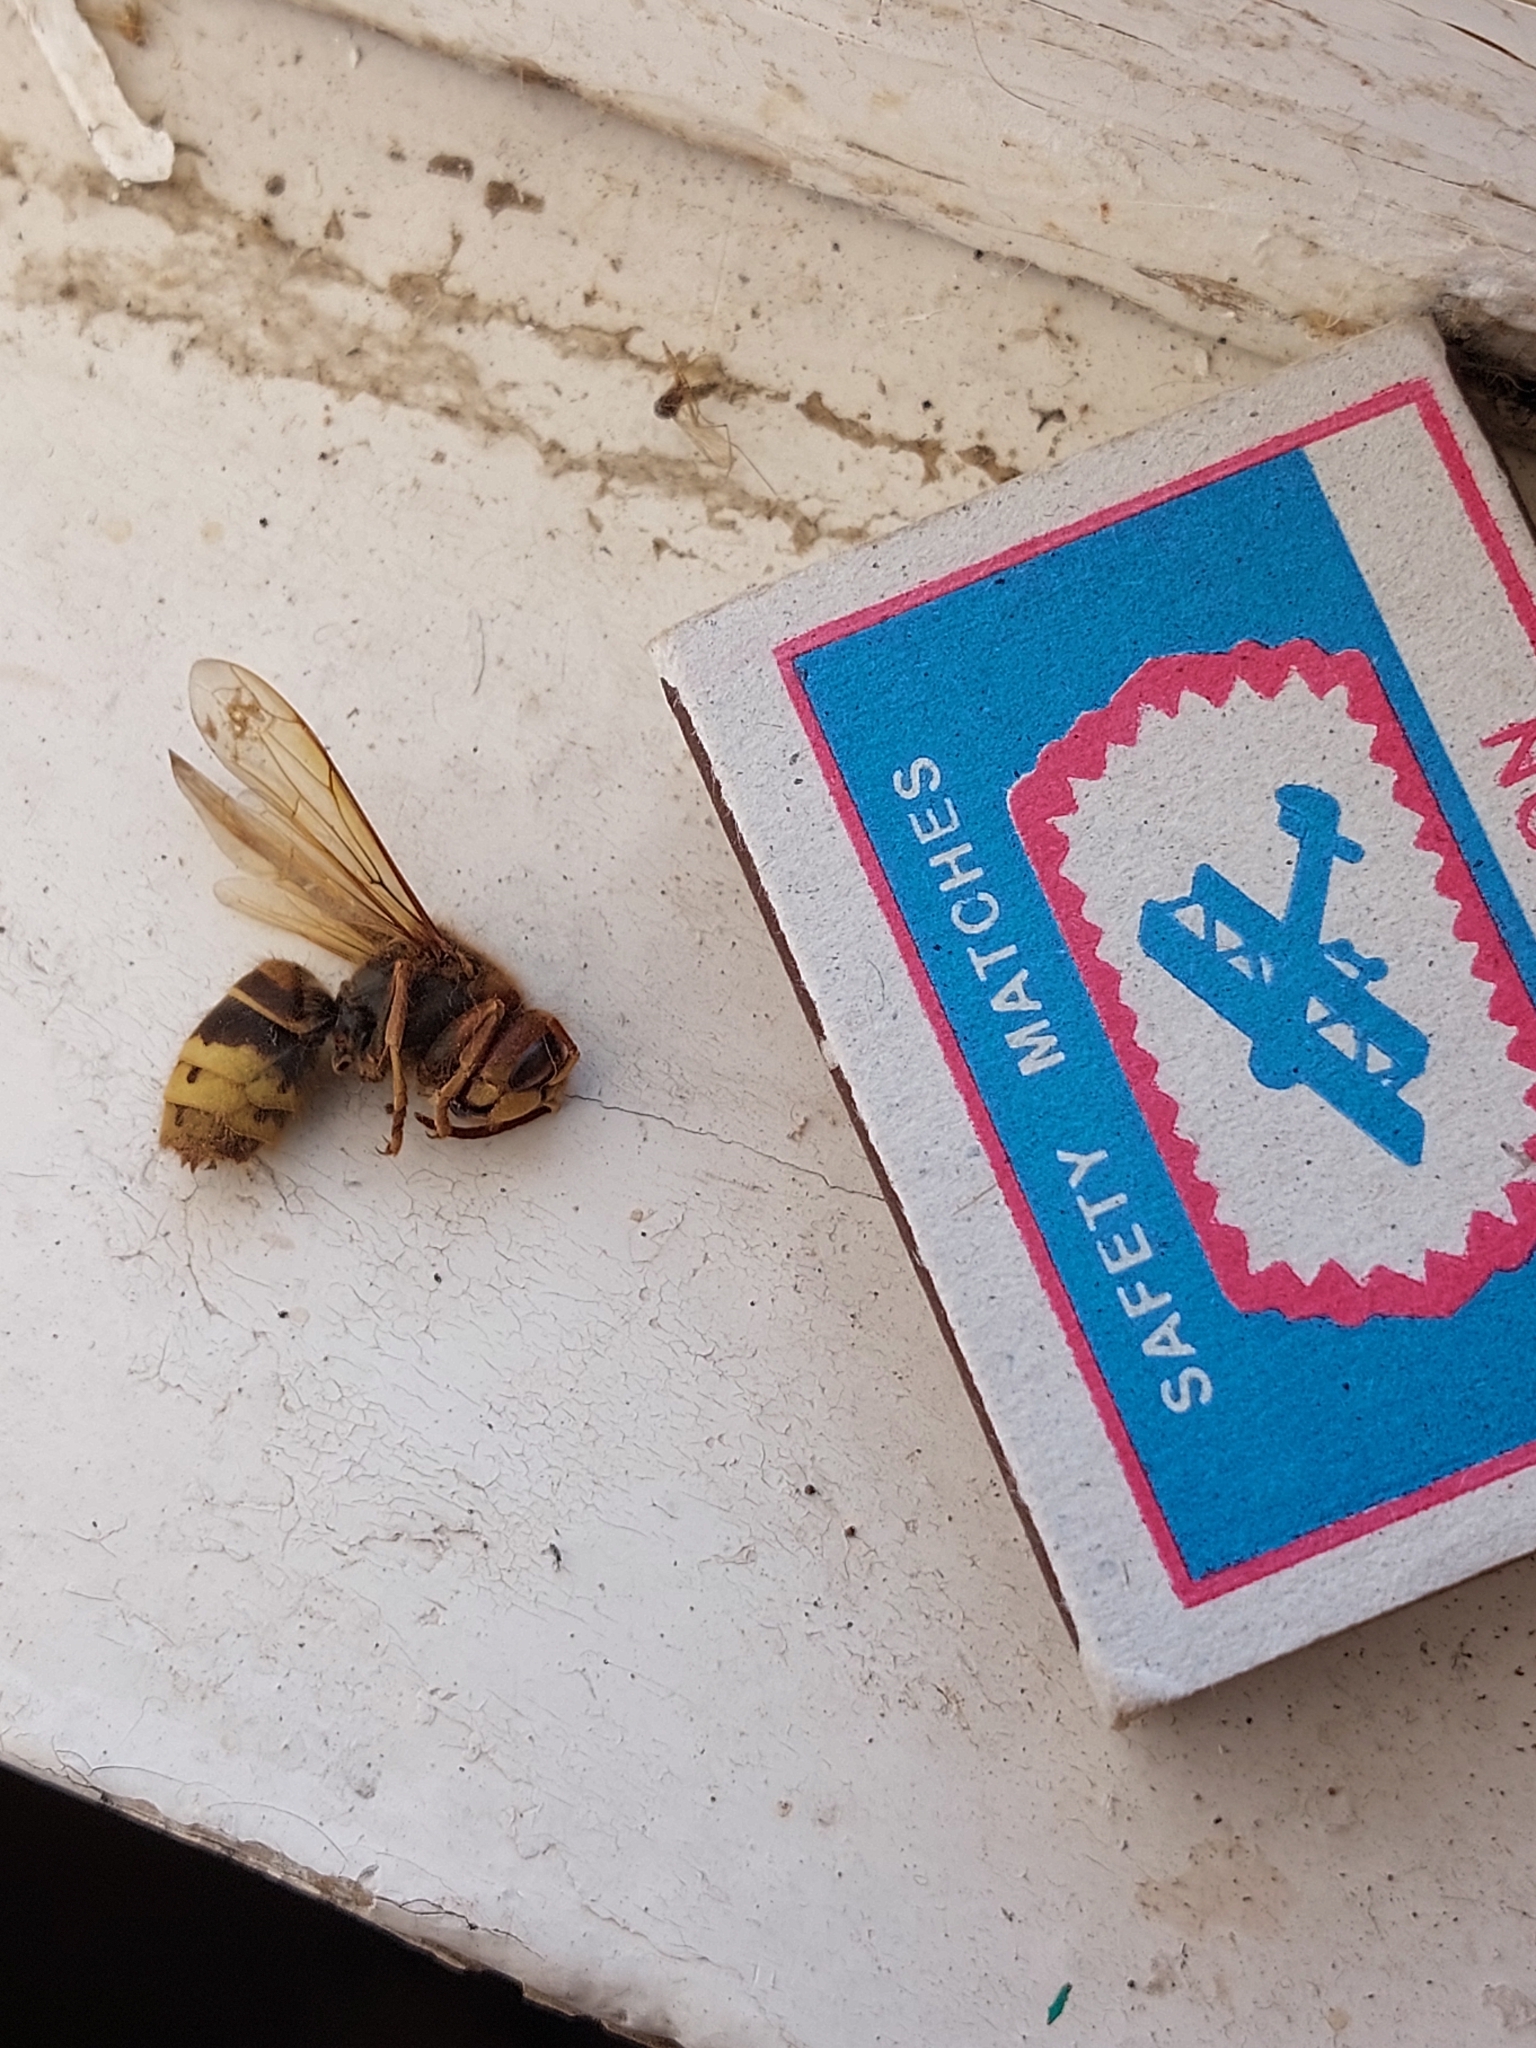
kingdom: Animalia
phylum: Arthropoda
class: Insecta
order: Hymenoptera
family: Vespidae
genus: Vespa
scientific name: Vespa crabro
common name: Hornet
